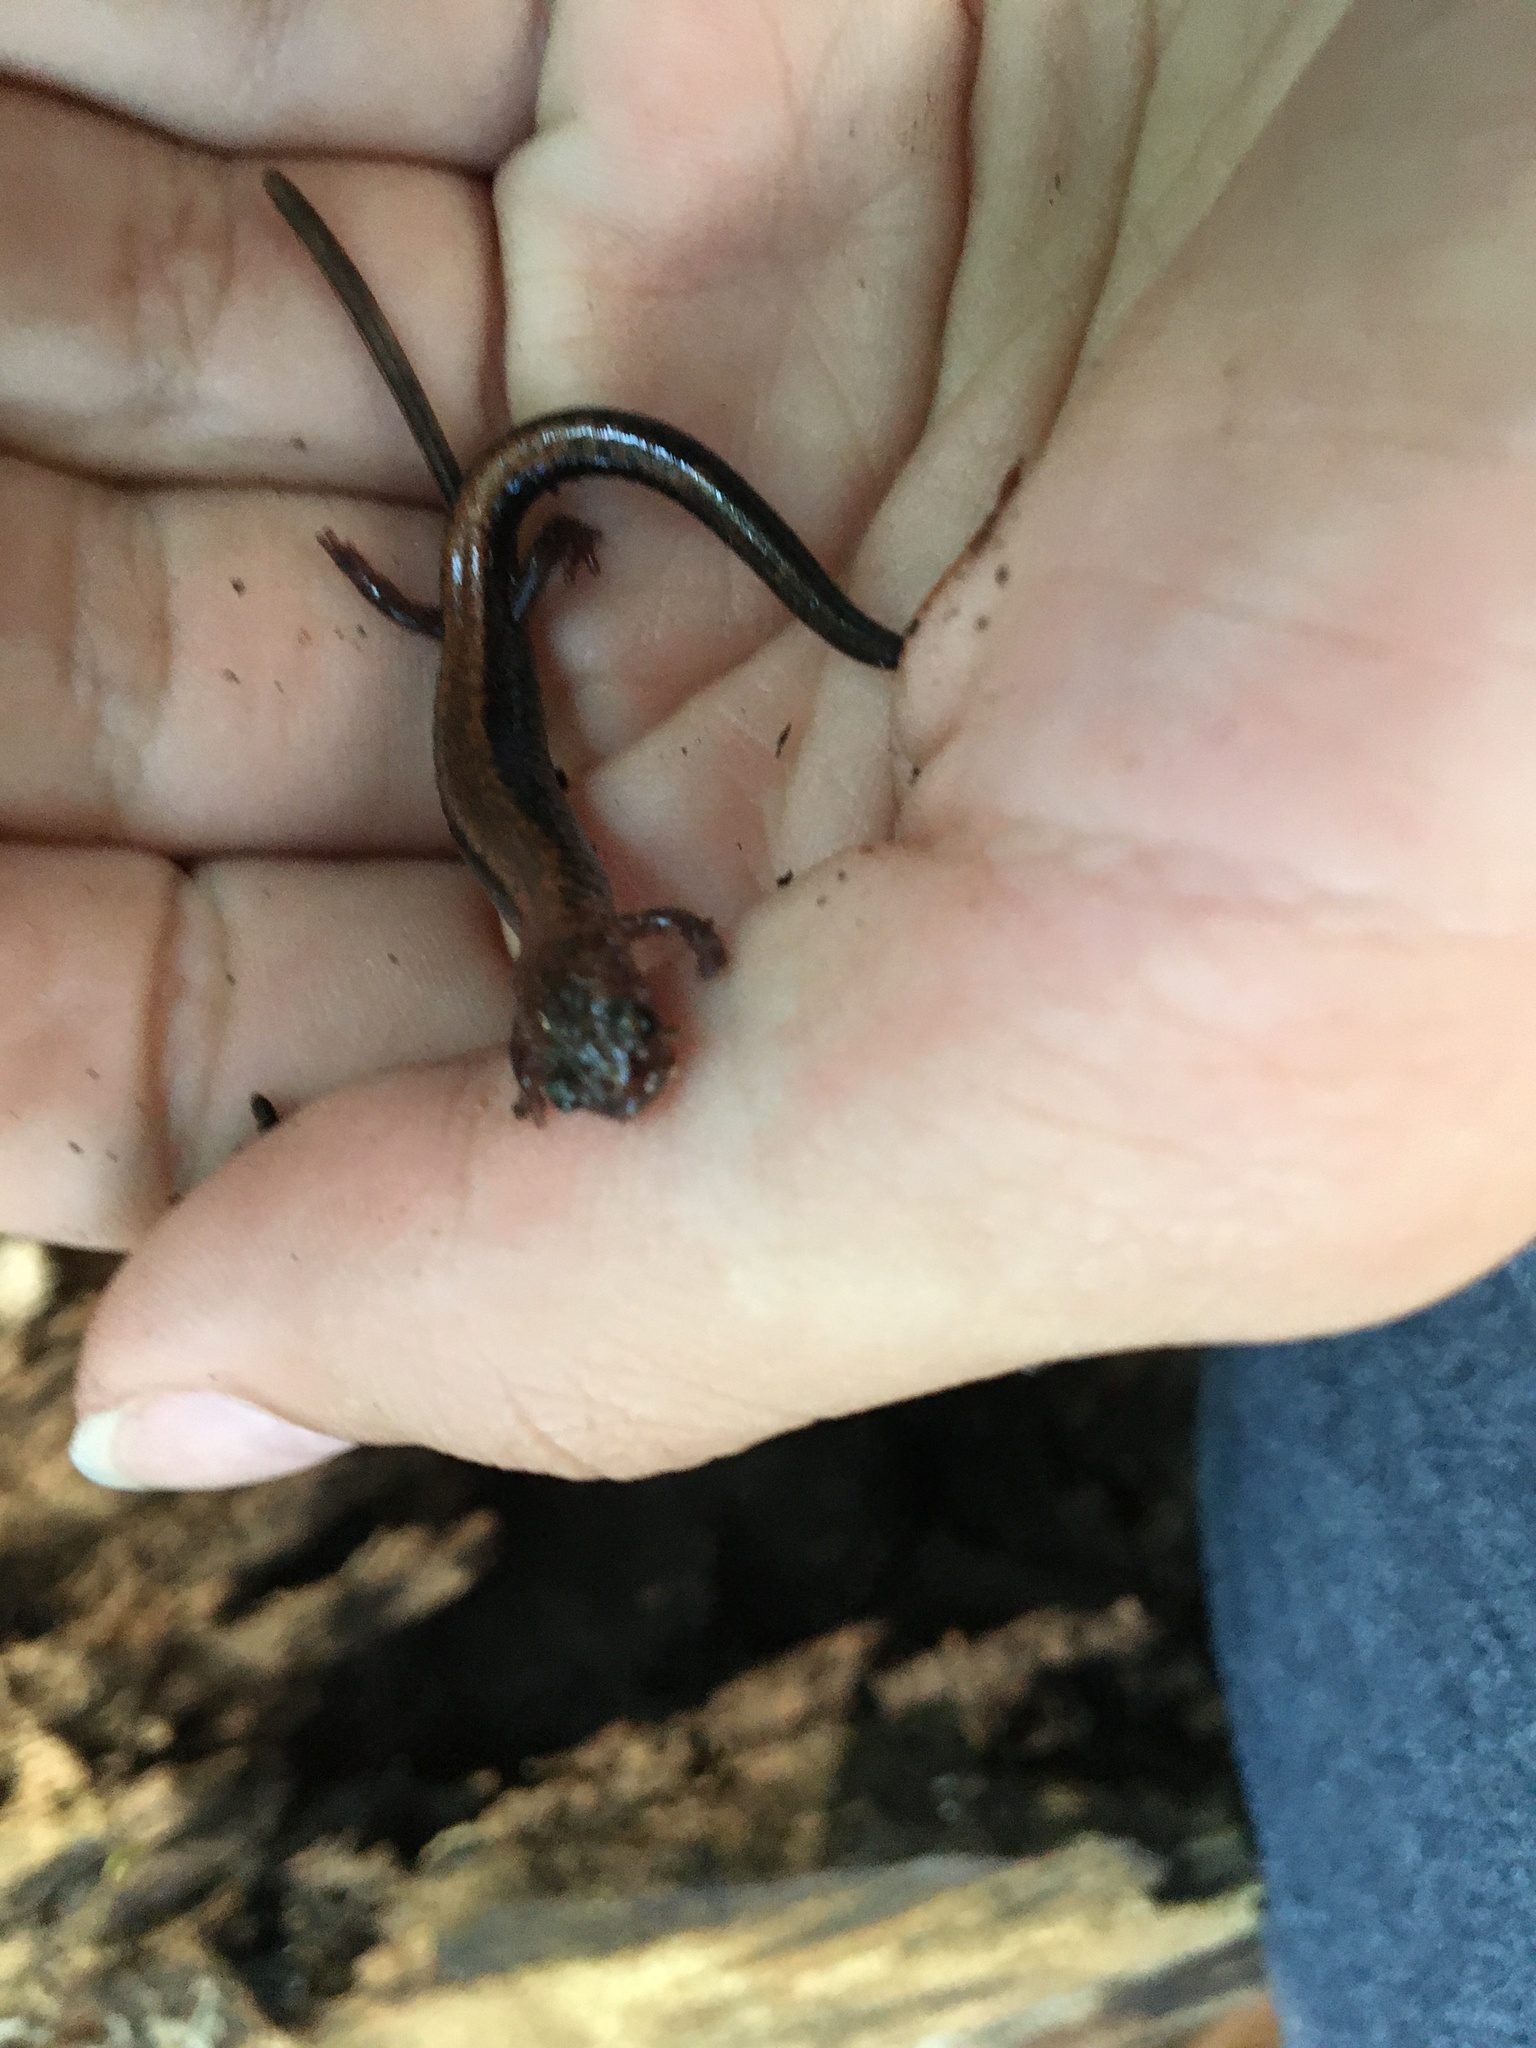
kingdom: Animalia
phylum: Chordata
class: Amphibia
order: Caudata
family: Plethodontidae
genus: Plethodon
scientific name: Plethodon cinereus
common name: Redback salamander
